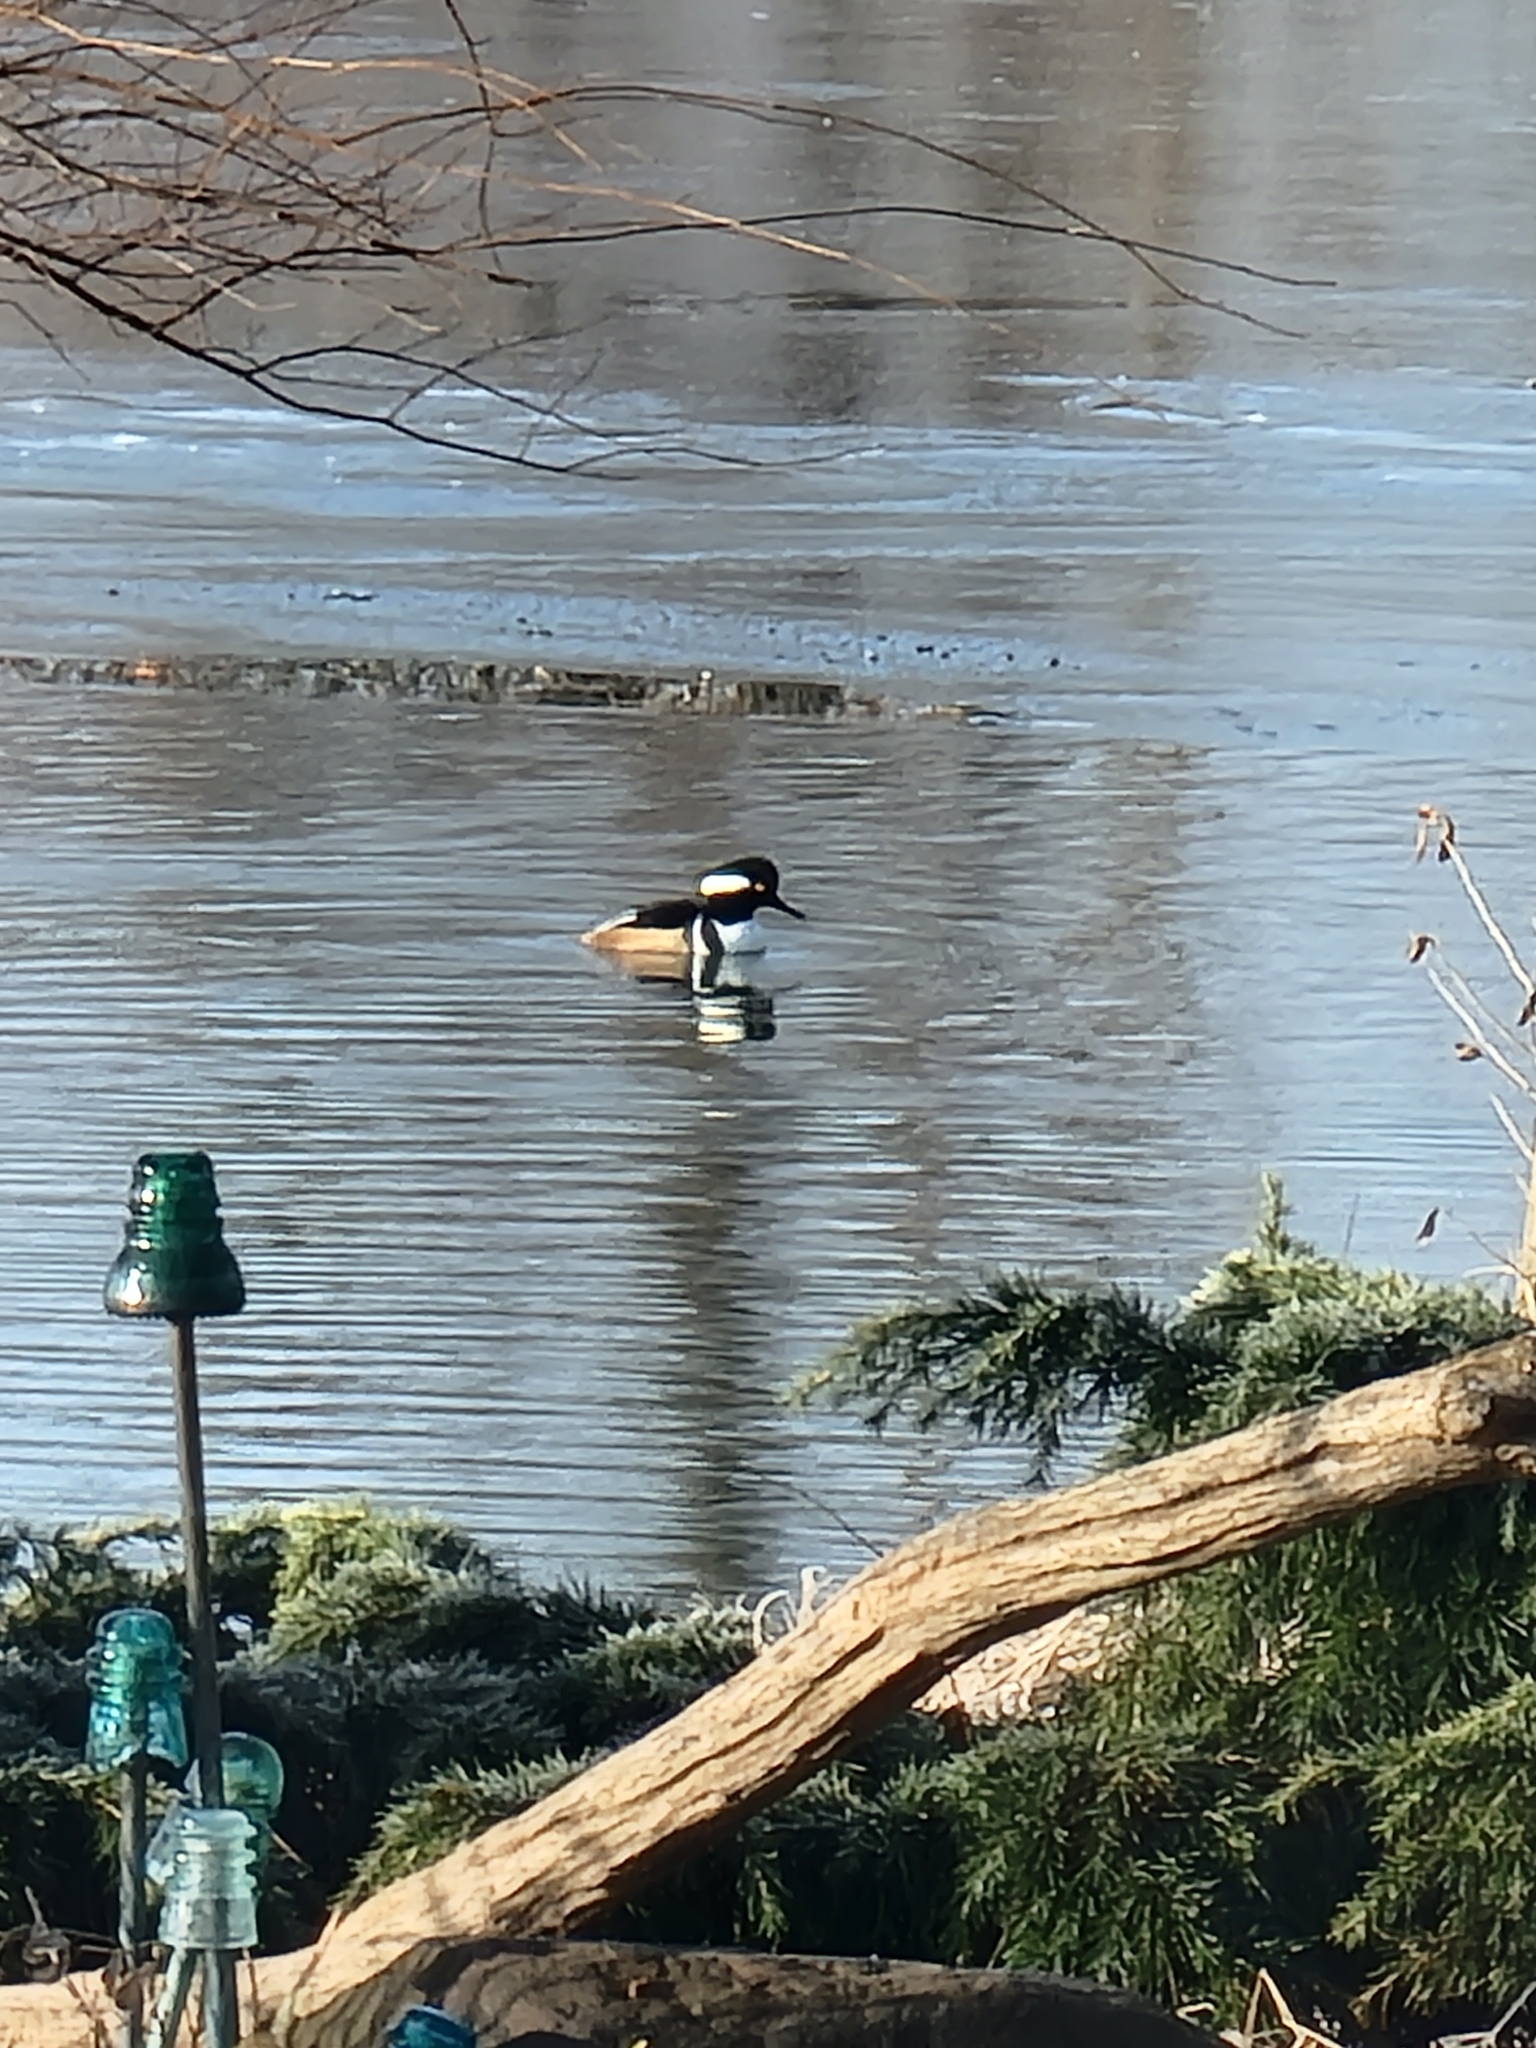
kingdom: Animalia
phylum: Chordata
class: Aves
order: Anseriformes
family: Anatidae
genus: Lophodytes
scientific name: Lophodytes cucullatus
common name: Hooded merganser
